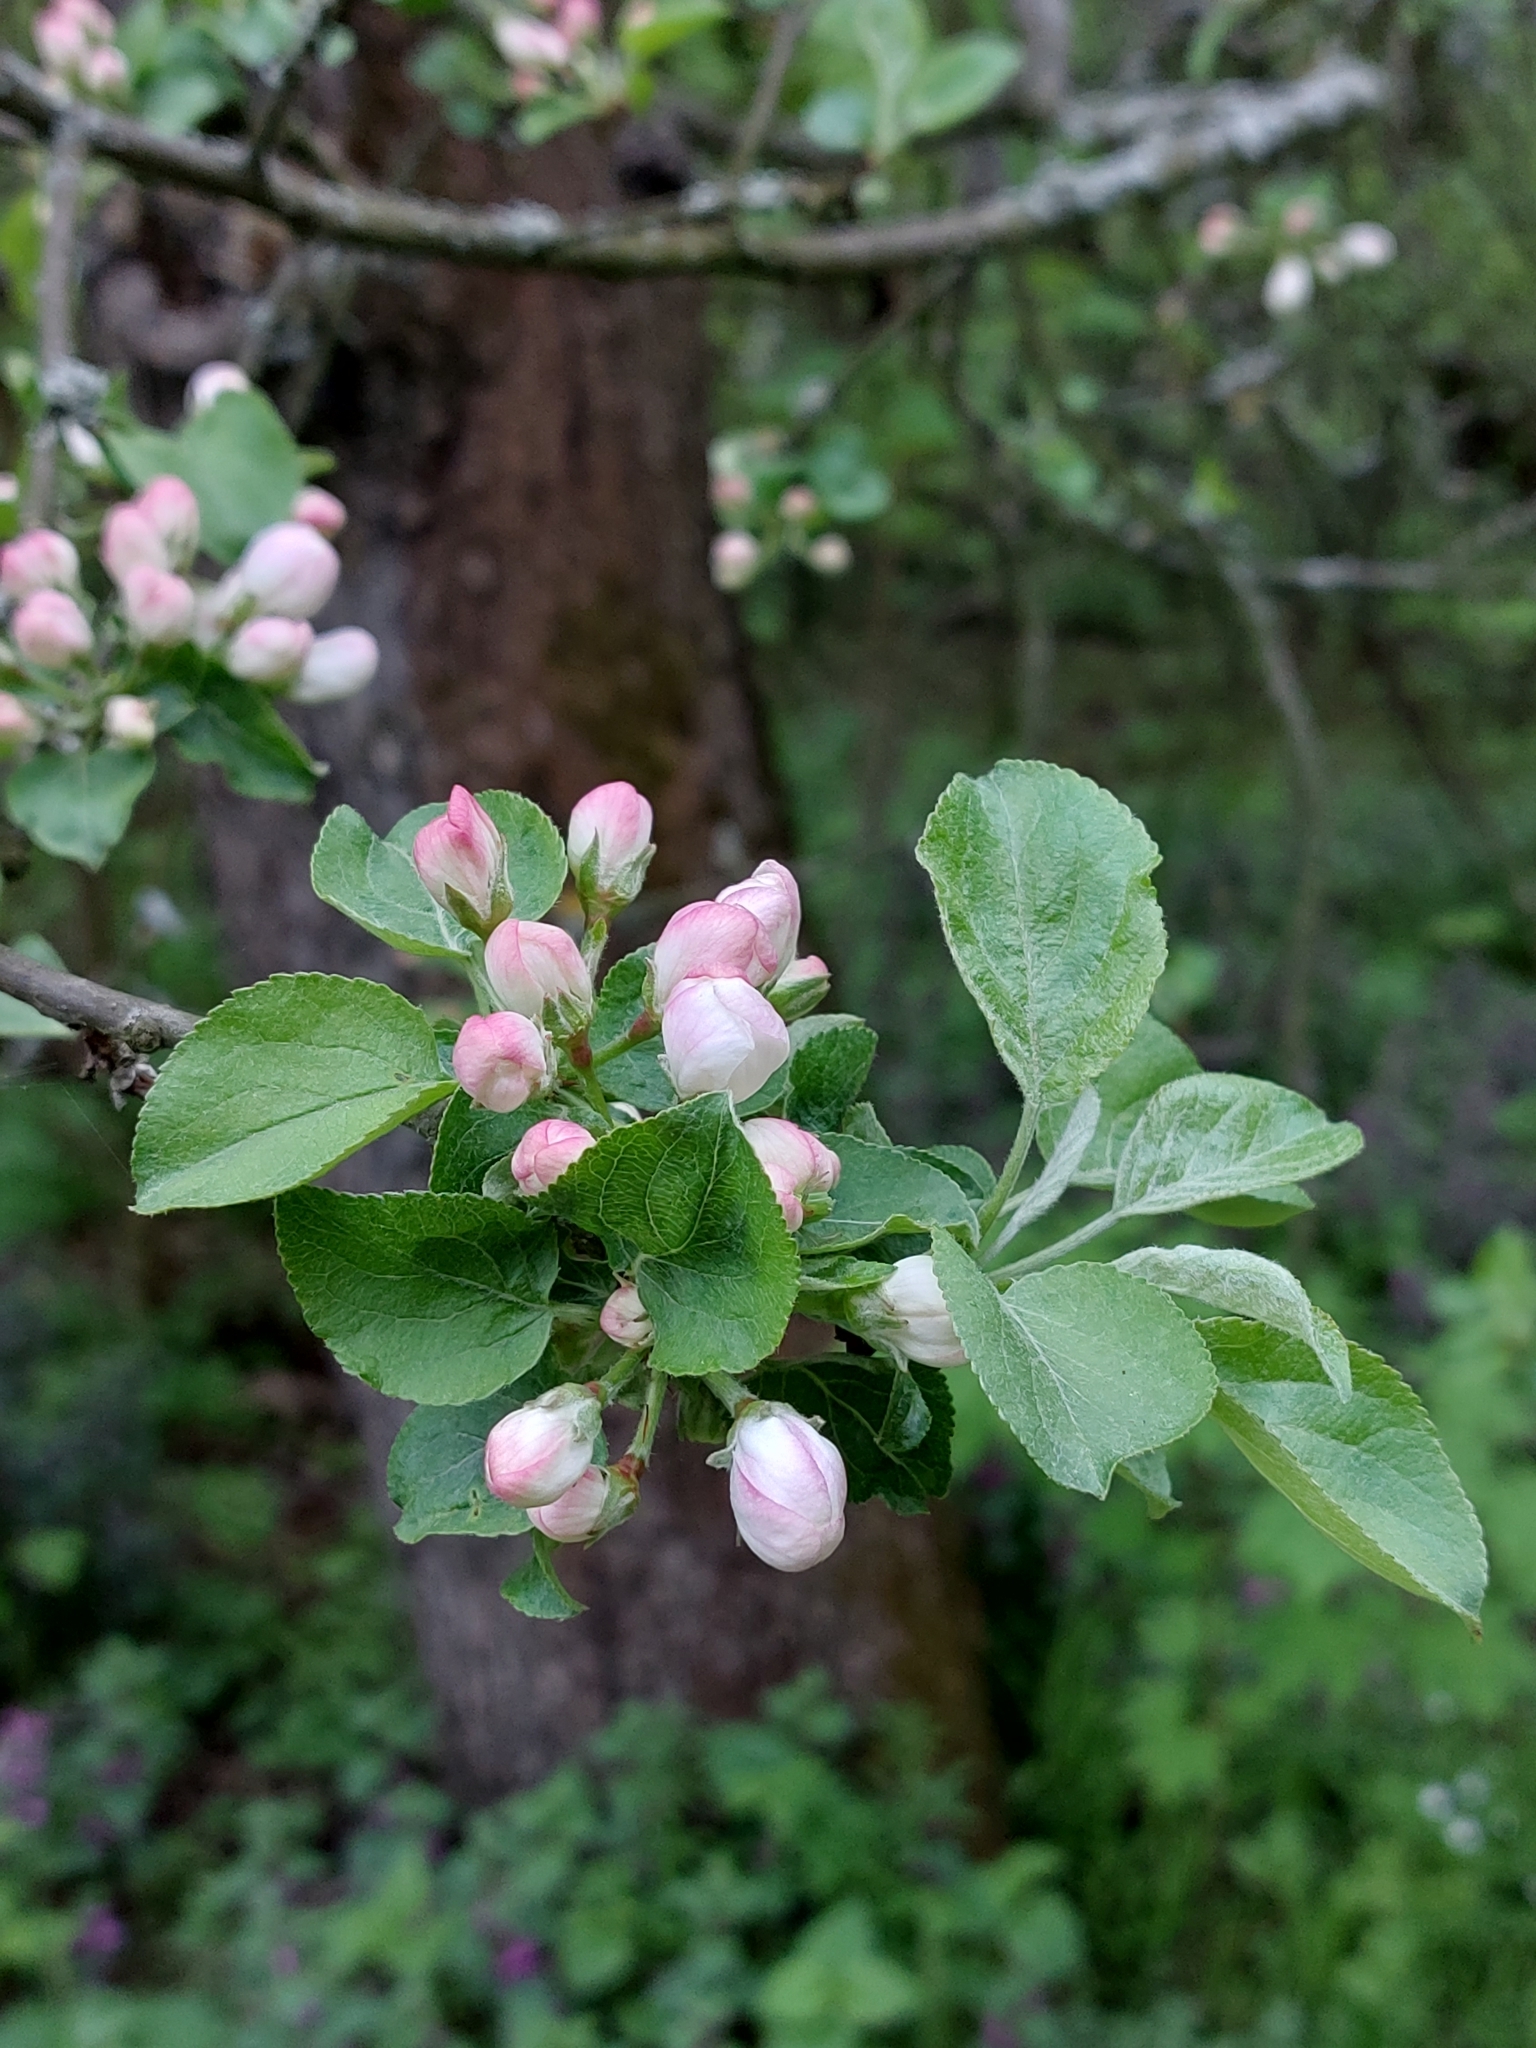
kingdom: Plantae
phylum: Tracheophyta
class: Magnoliopsida
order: Rosales
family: Rosaceae
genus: Malus
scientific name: Malus domestica
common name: Apple
